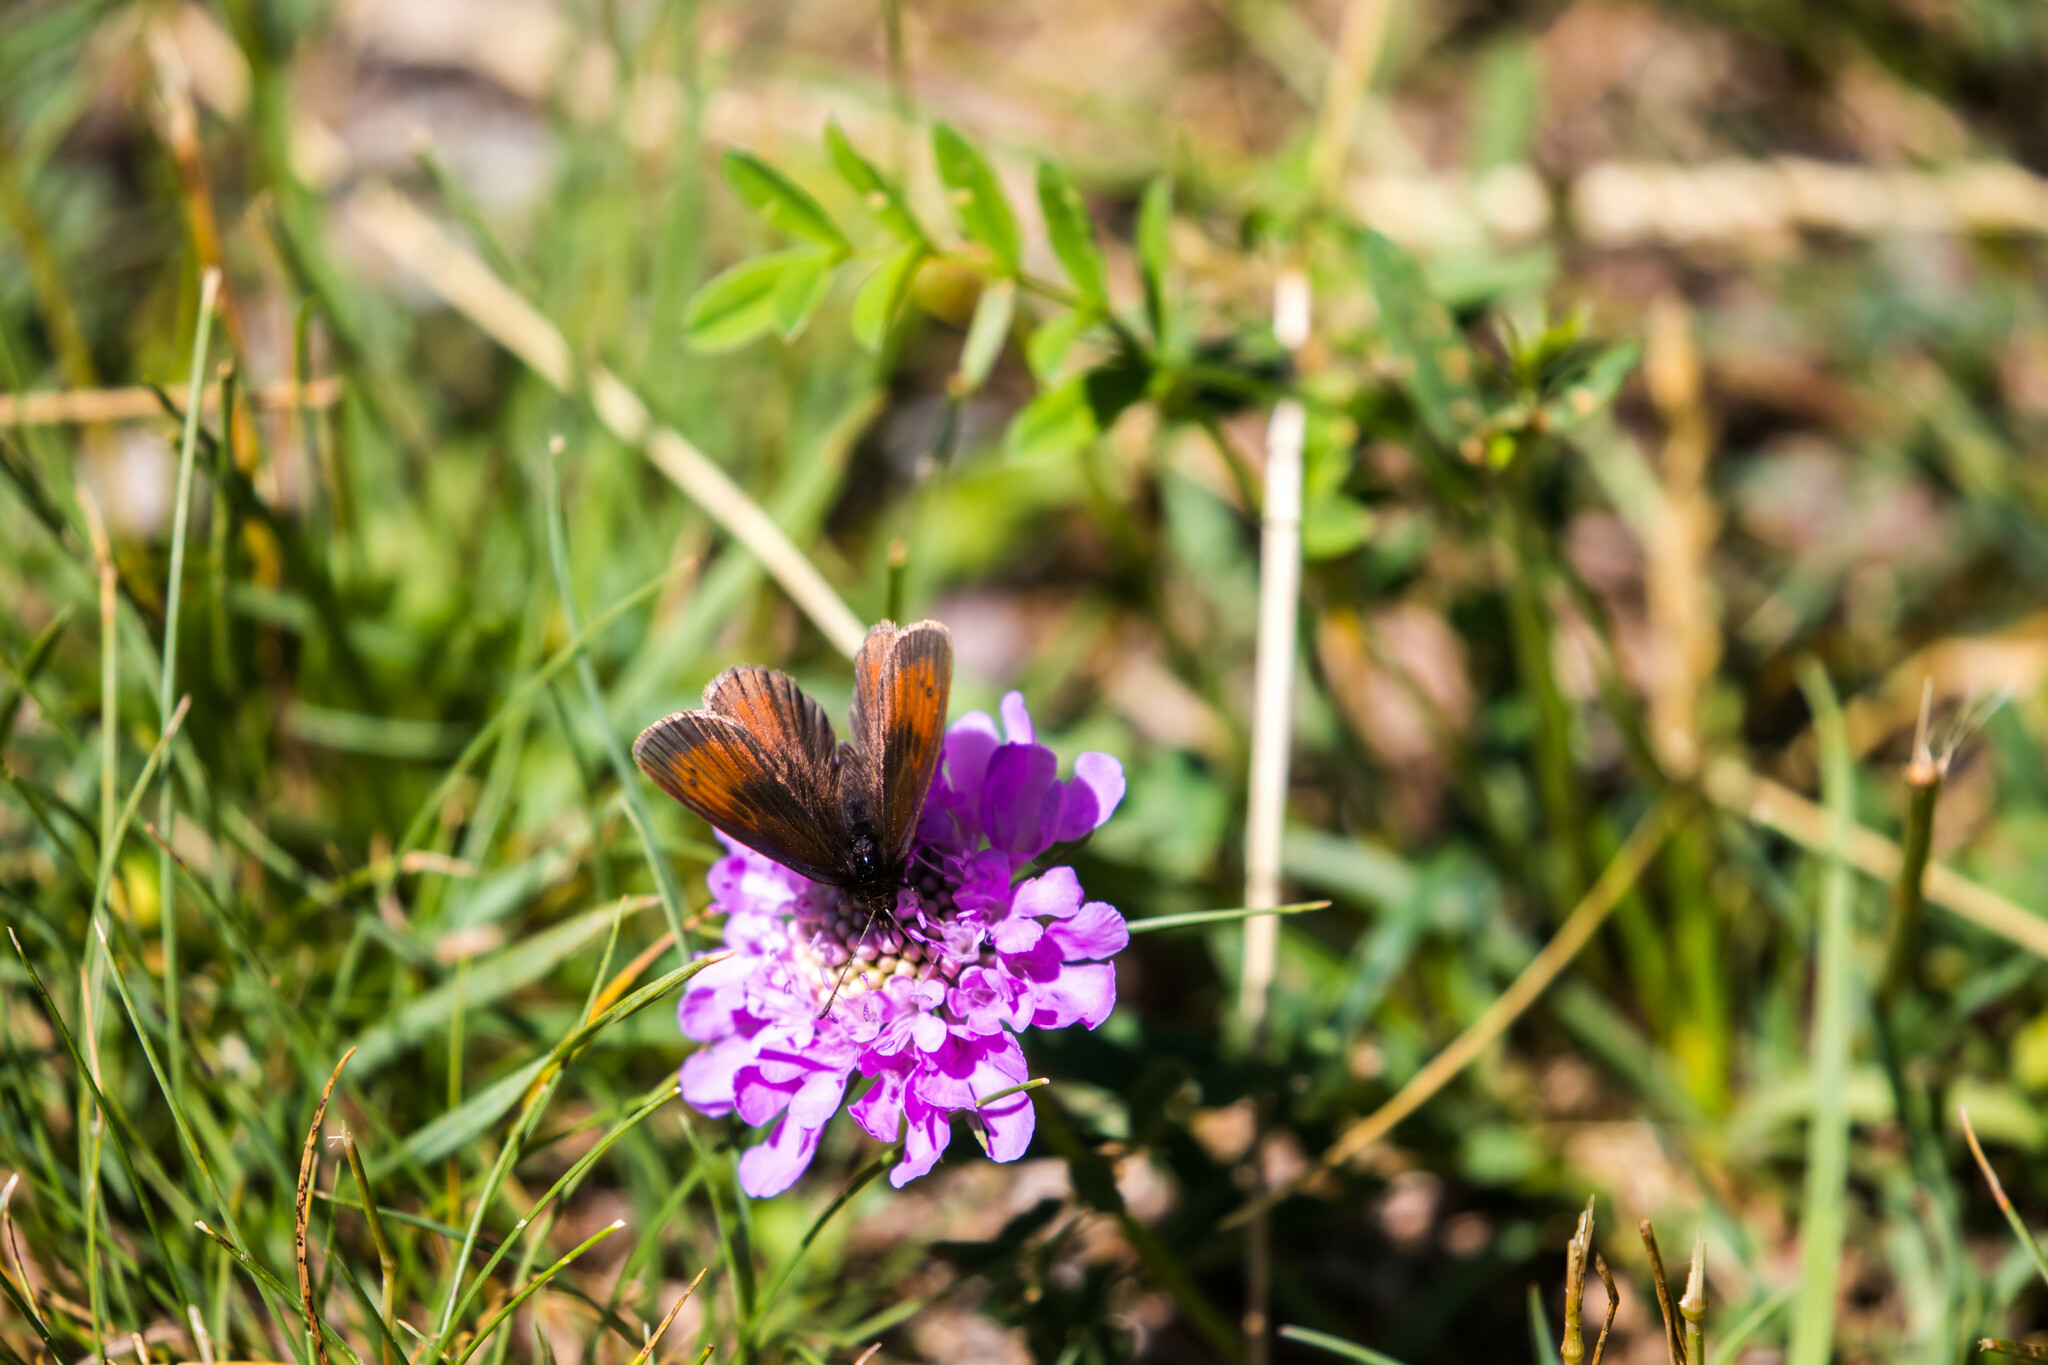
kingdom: Animalia
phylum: Arthropoda
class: Insecta
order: Lepidoptera
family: Nymphalidae
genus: Erebia
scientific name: Erebia mnestra
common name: Mnestra’s ringlet
